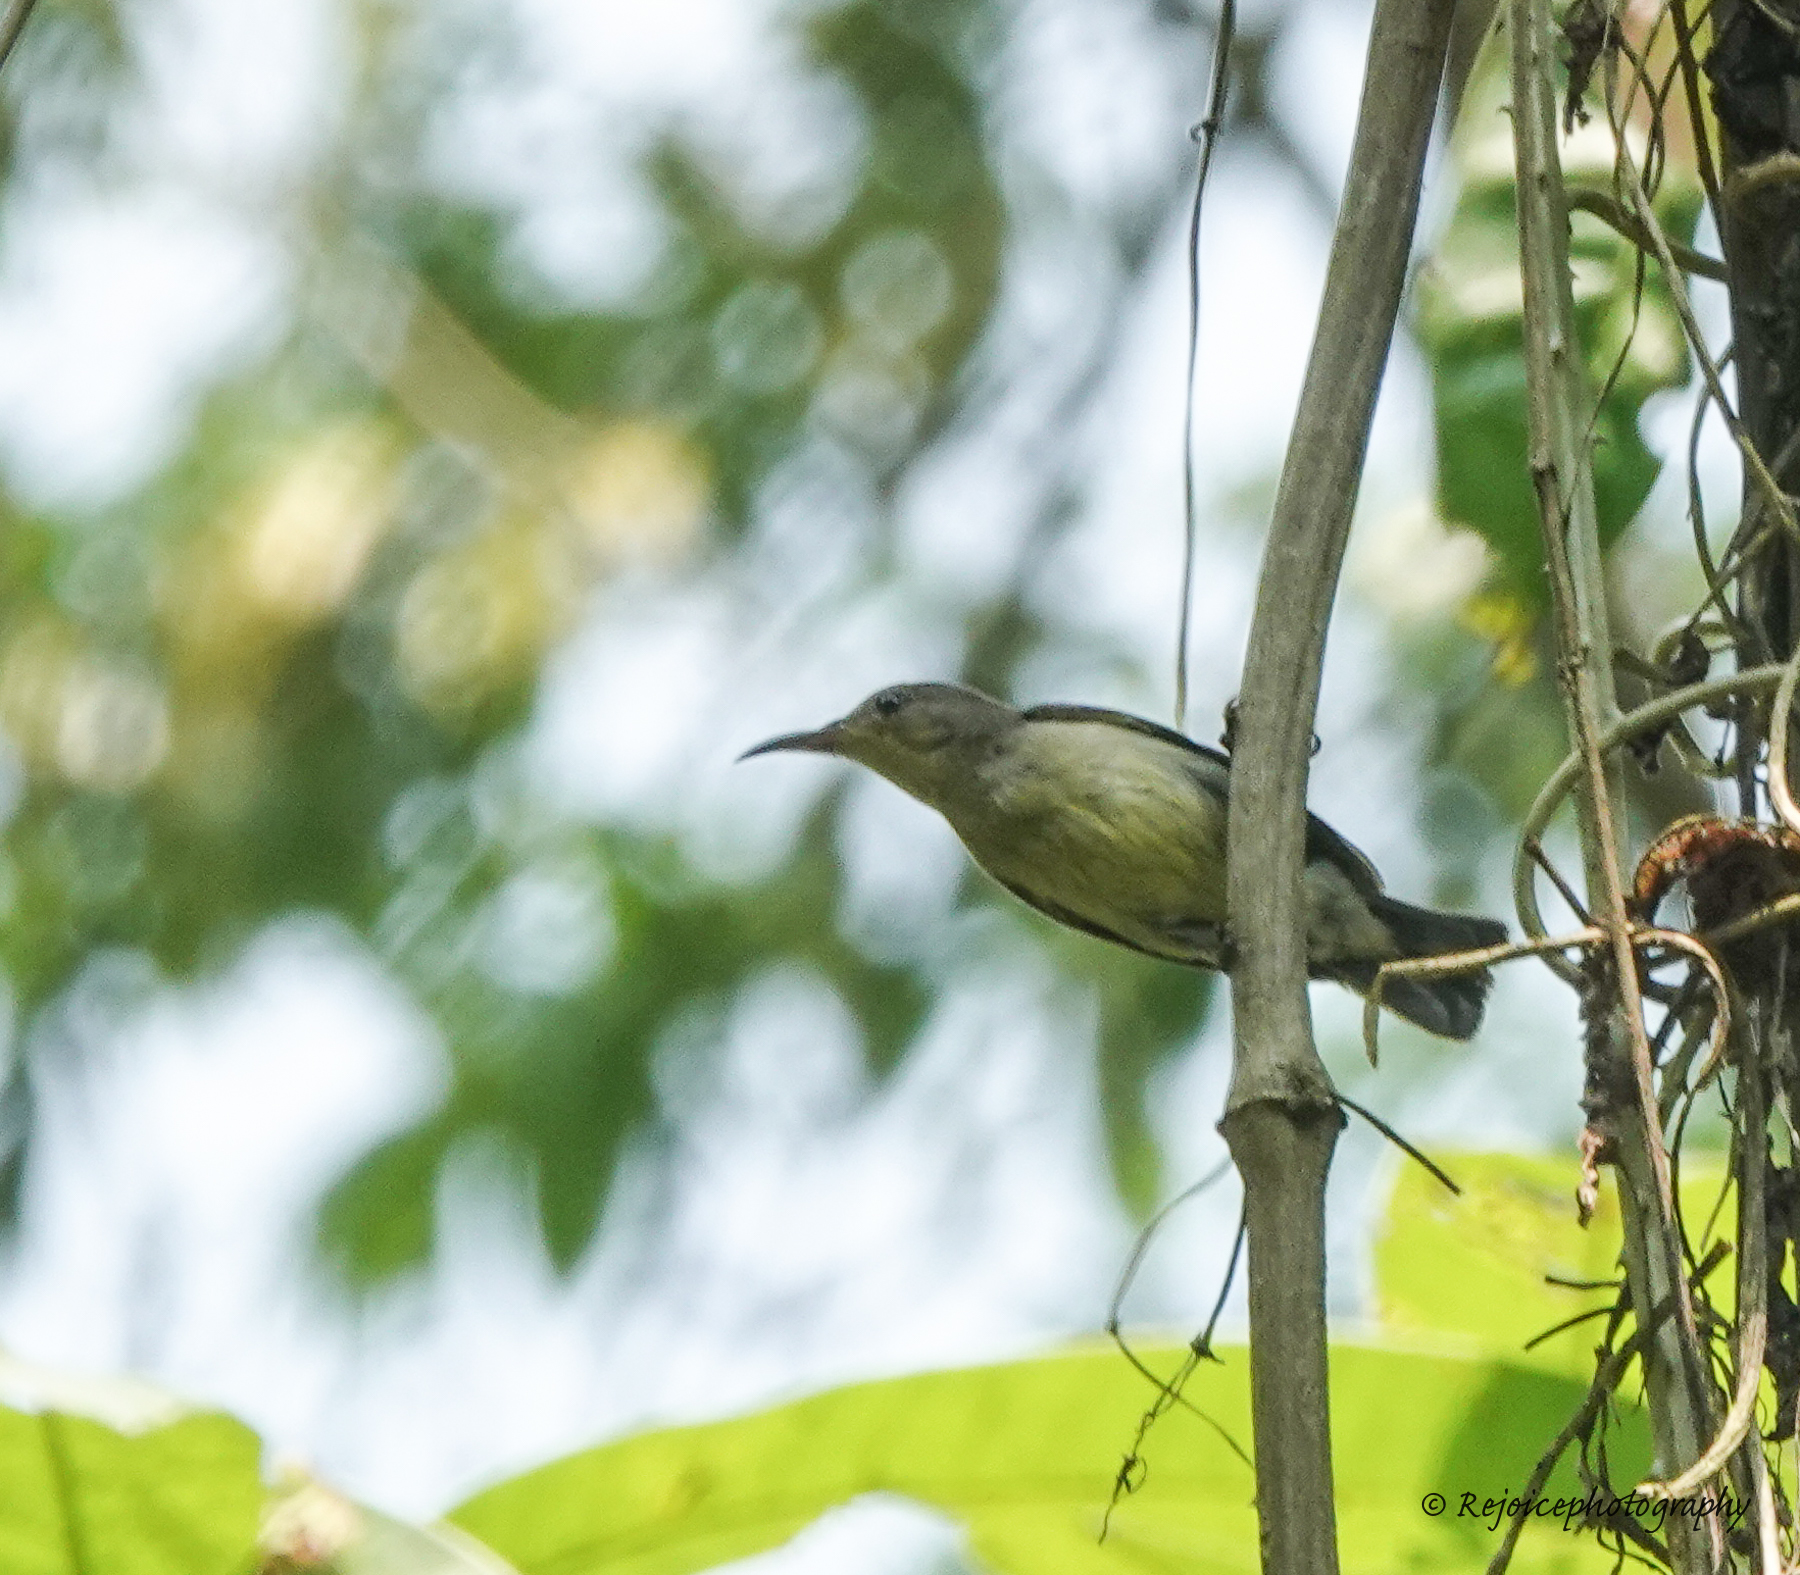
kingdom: Animalia
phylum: Chordata
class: Aves
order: Passeriformes
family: Nectariniidae
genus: Leptocoma
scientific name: Leptocoma brasiliana
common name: Van hasselt's sunbird
